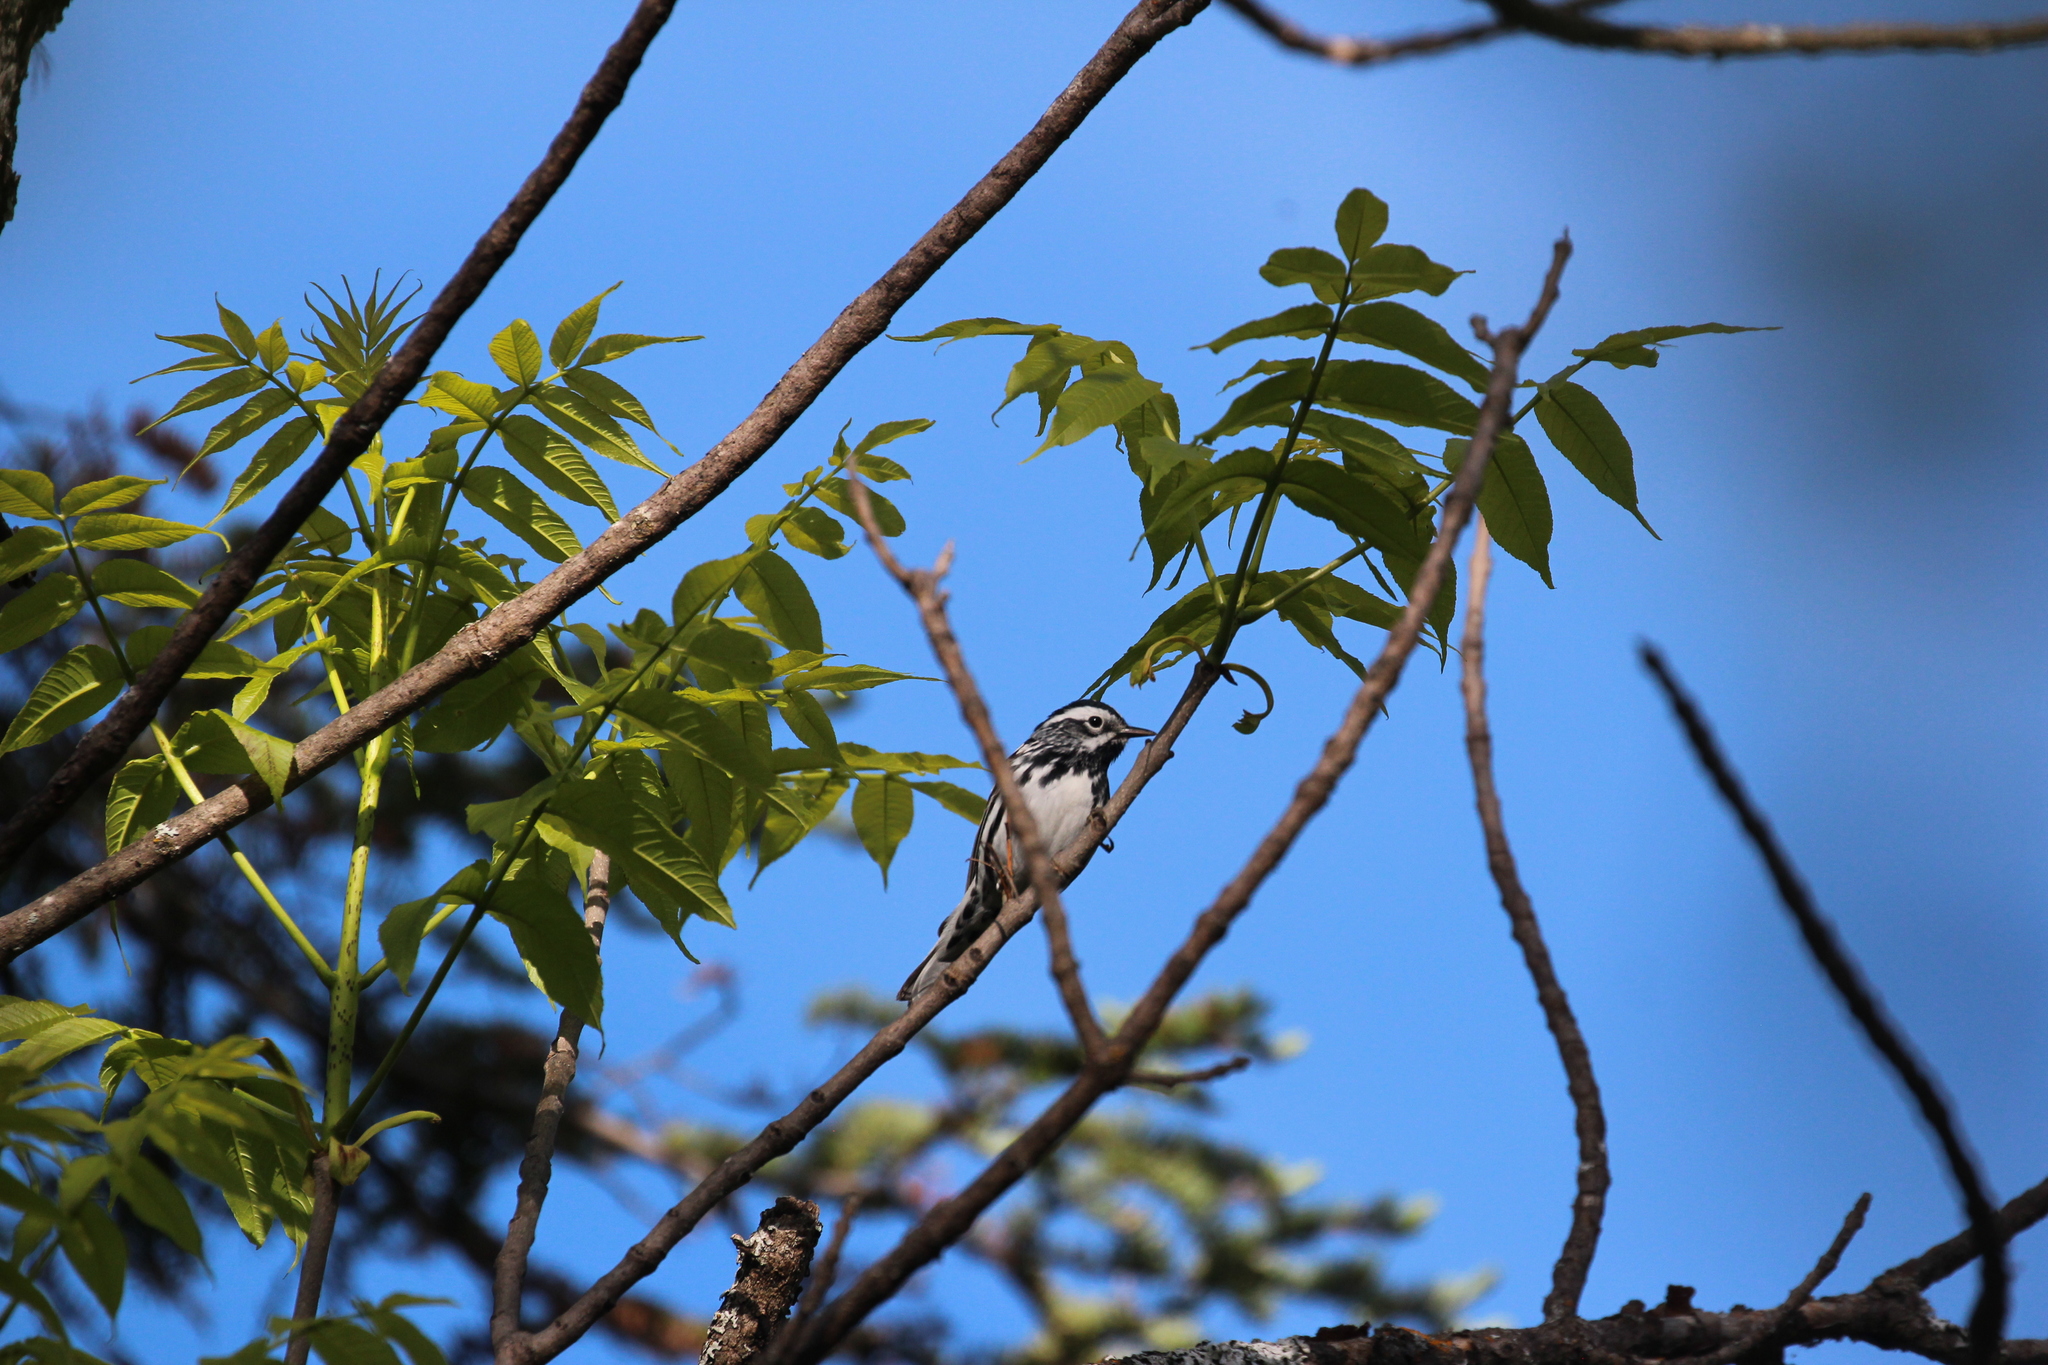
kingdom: Animalia
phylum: Chordata
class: Aves
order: Passeriformes
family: Parulidae
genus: Mniotilta
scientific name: Mniotilta varia
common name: Black-and-white warbler
